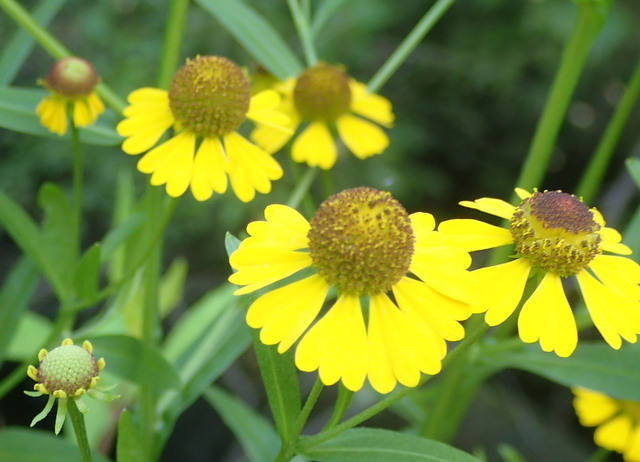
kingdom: Plantae
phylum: Tracheophyta
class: Magnoliopsida
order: Asterales
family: Asteraceae
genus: Helenium
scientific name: Helenium autumnale
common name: Sneezeweed
